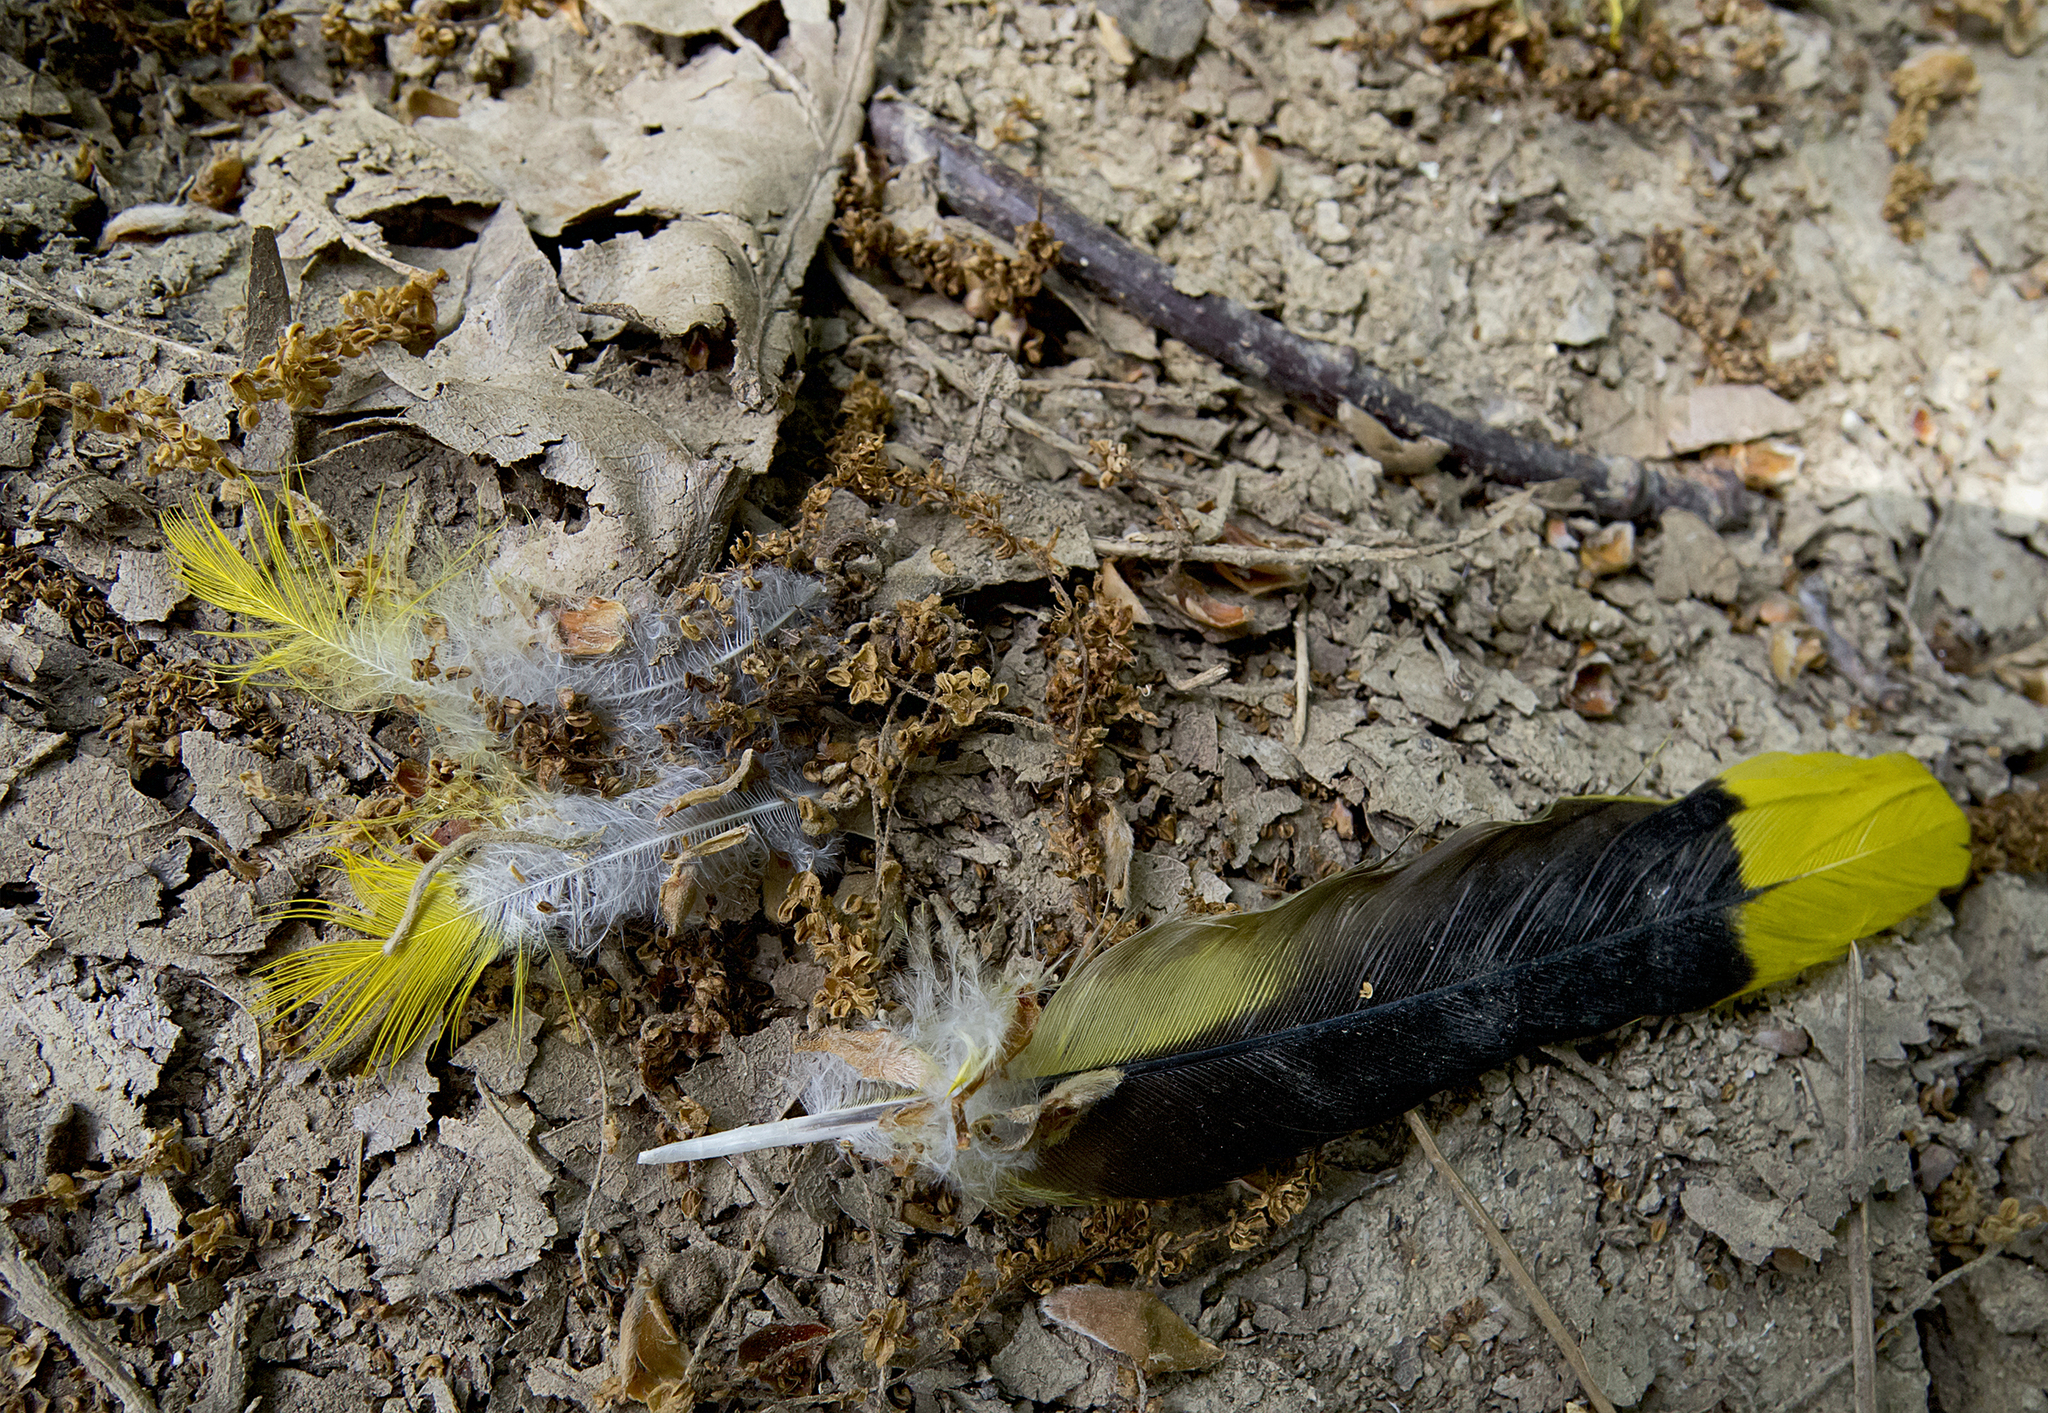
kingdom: Animalia
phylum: Chordata
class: Aves
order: Passeriformes
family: Oriolidae
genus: Oriolus
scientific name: Oriolus oriolus
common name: Eurasian golden oriole
